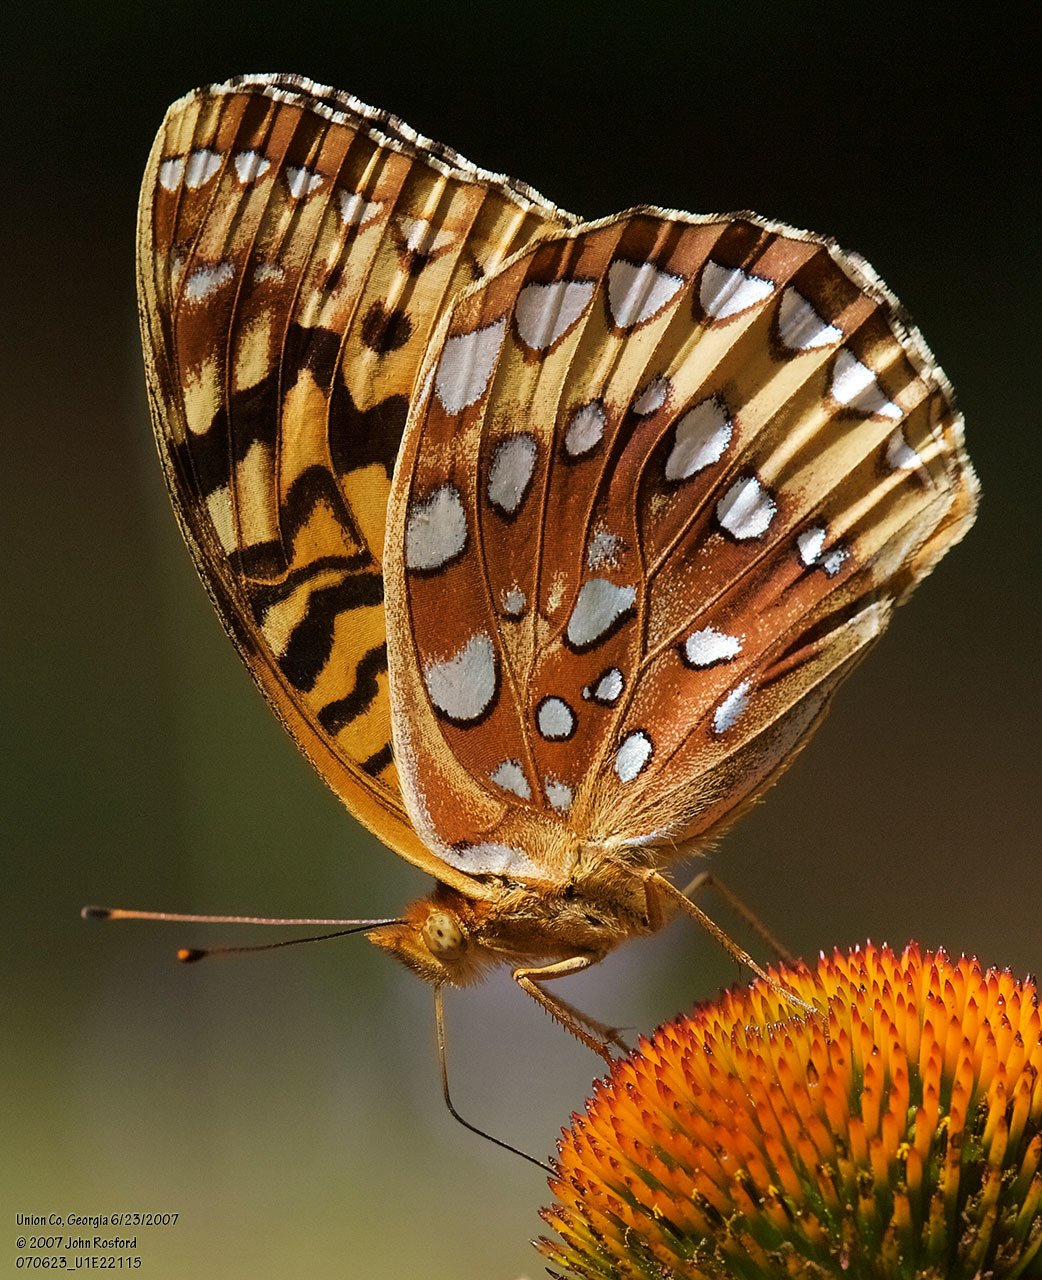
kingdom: Animalia
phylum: Arthropoda
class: Insecta
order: Lepidoptera
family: Nymphalidae
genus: Speyeria
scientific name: Speyeria cybele
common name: Great spangled fritillary
